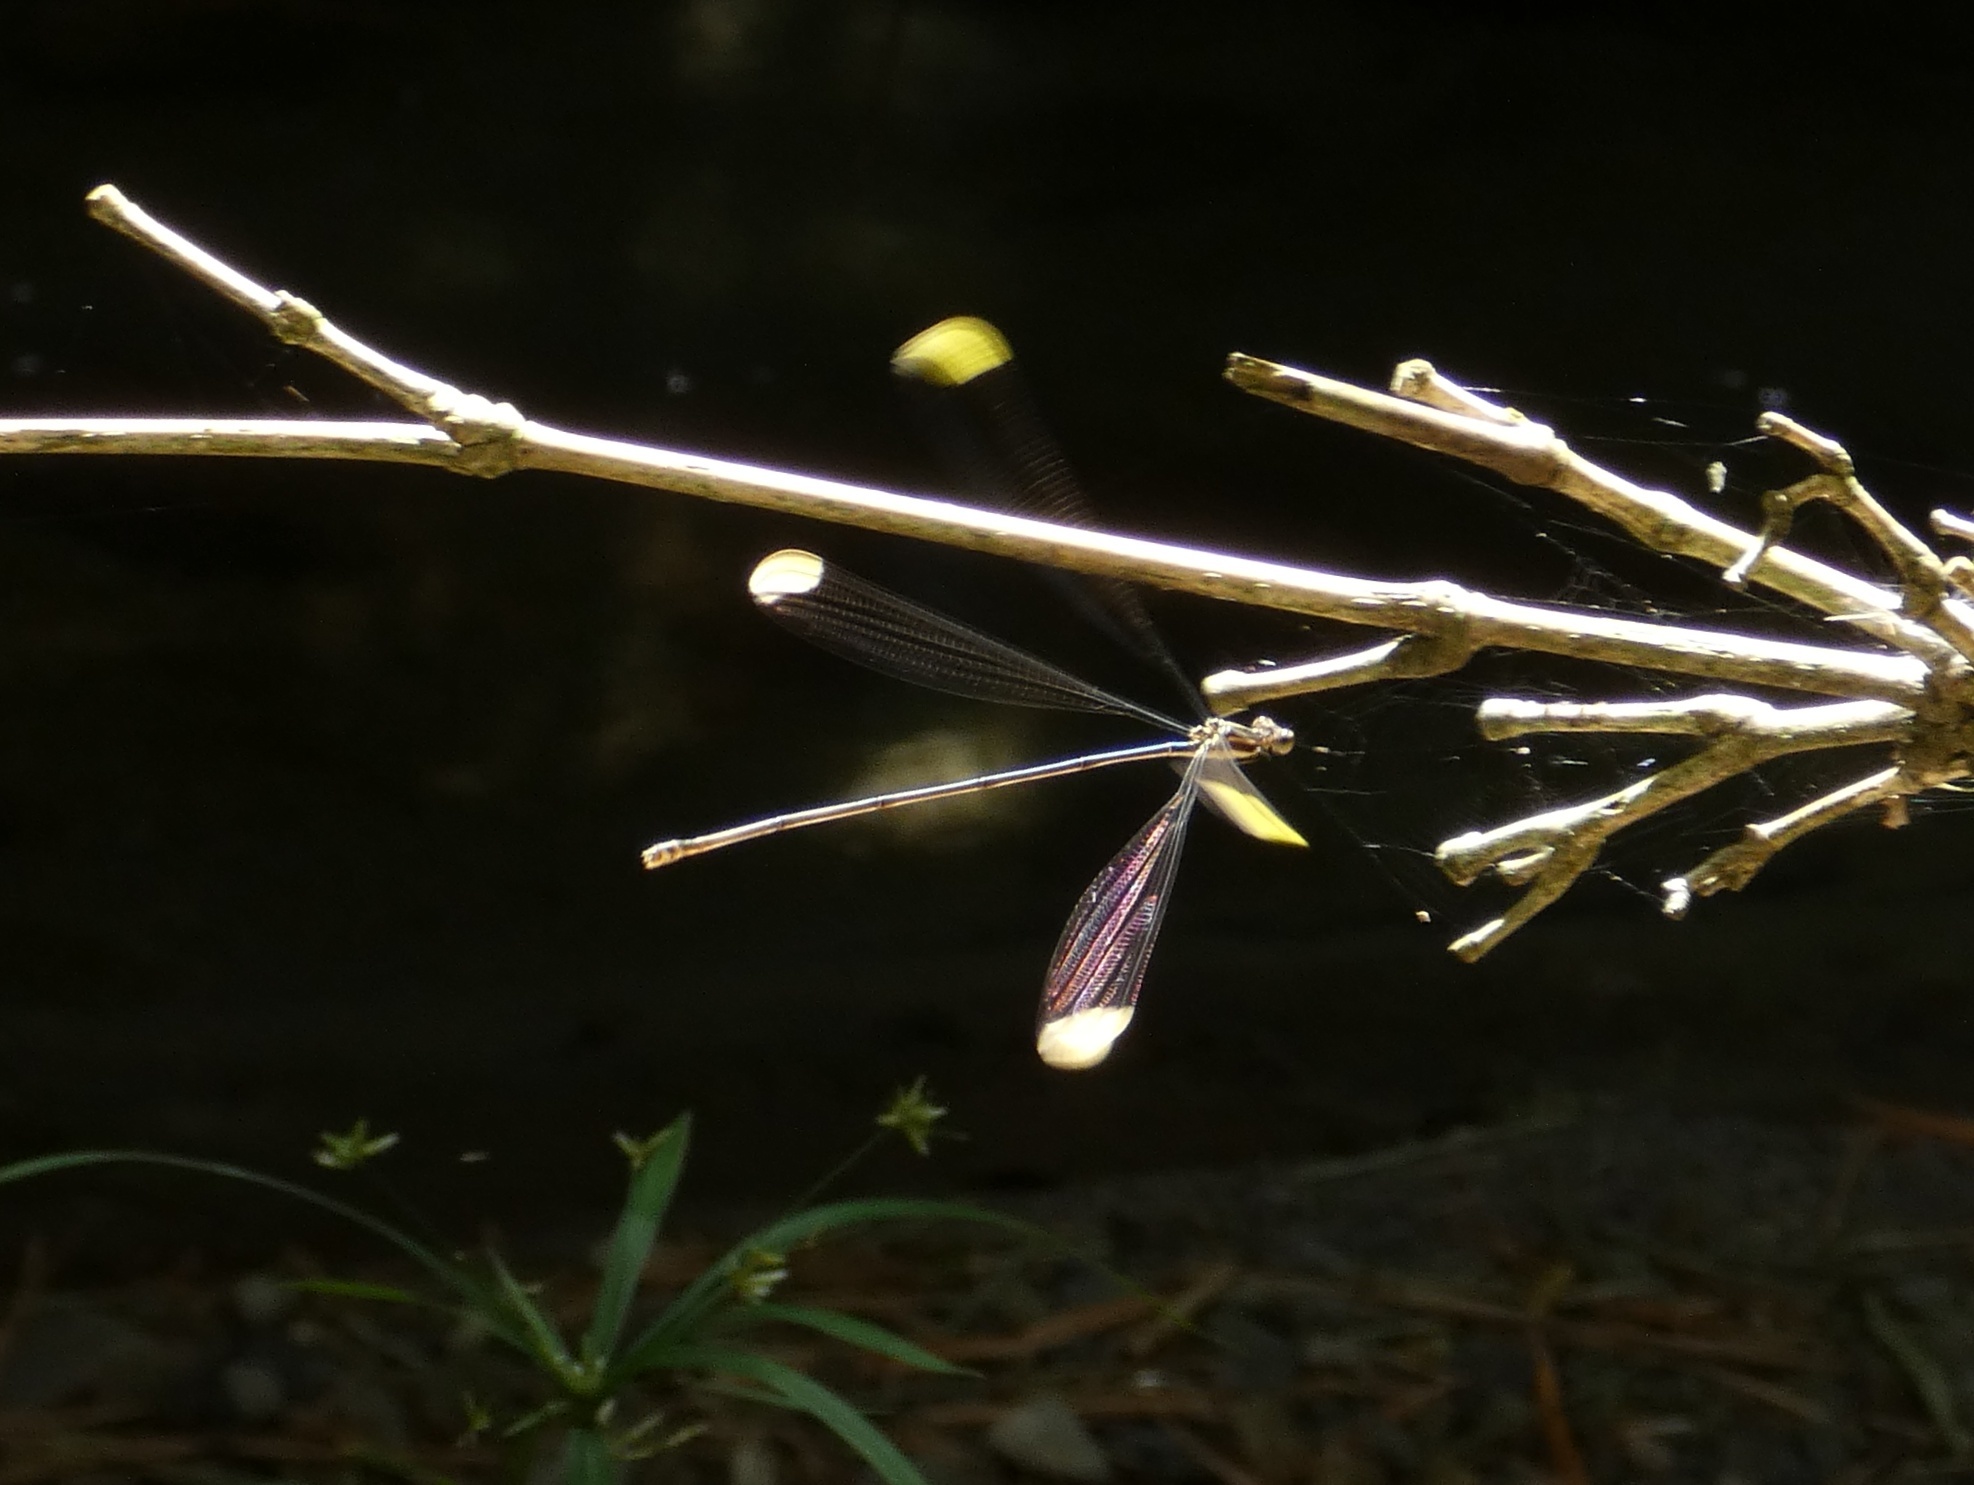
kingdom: Animalia
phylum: Arthropoda
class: Insecta
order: Odonata
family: Coenagrionidae
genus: Mecistogaster
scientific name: Mecistogaster ornata
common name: Ornate helicopter
